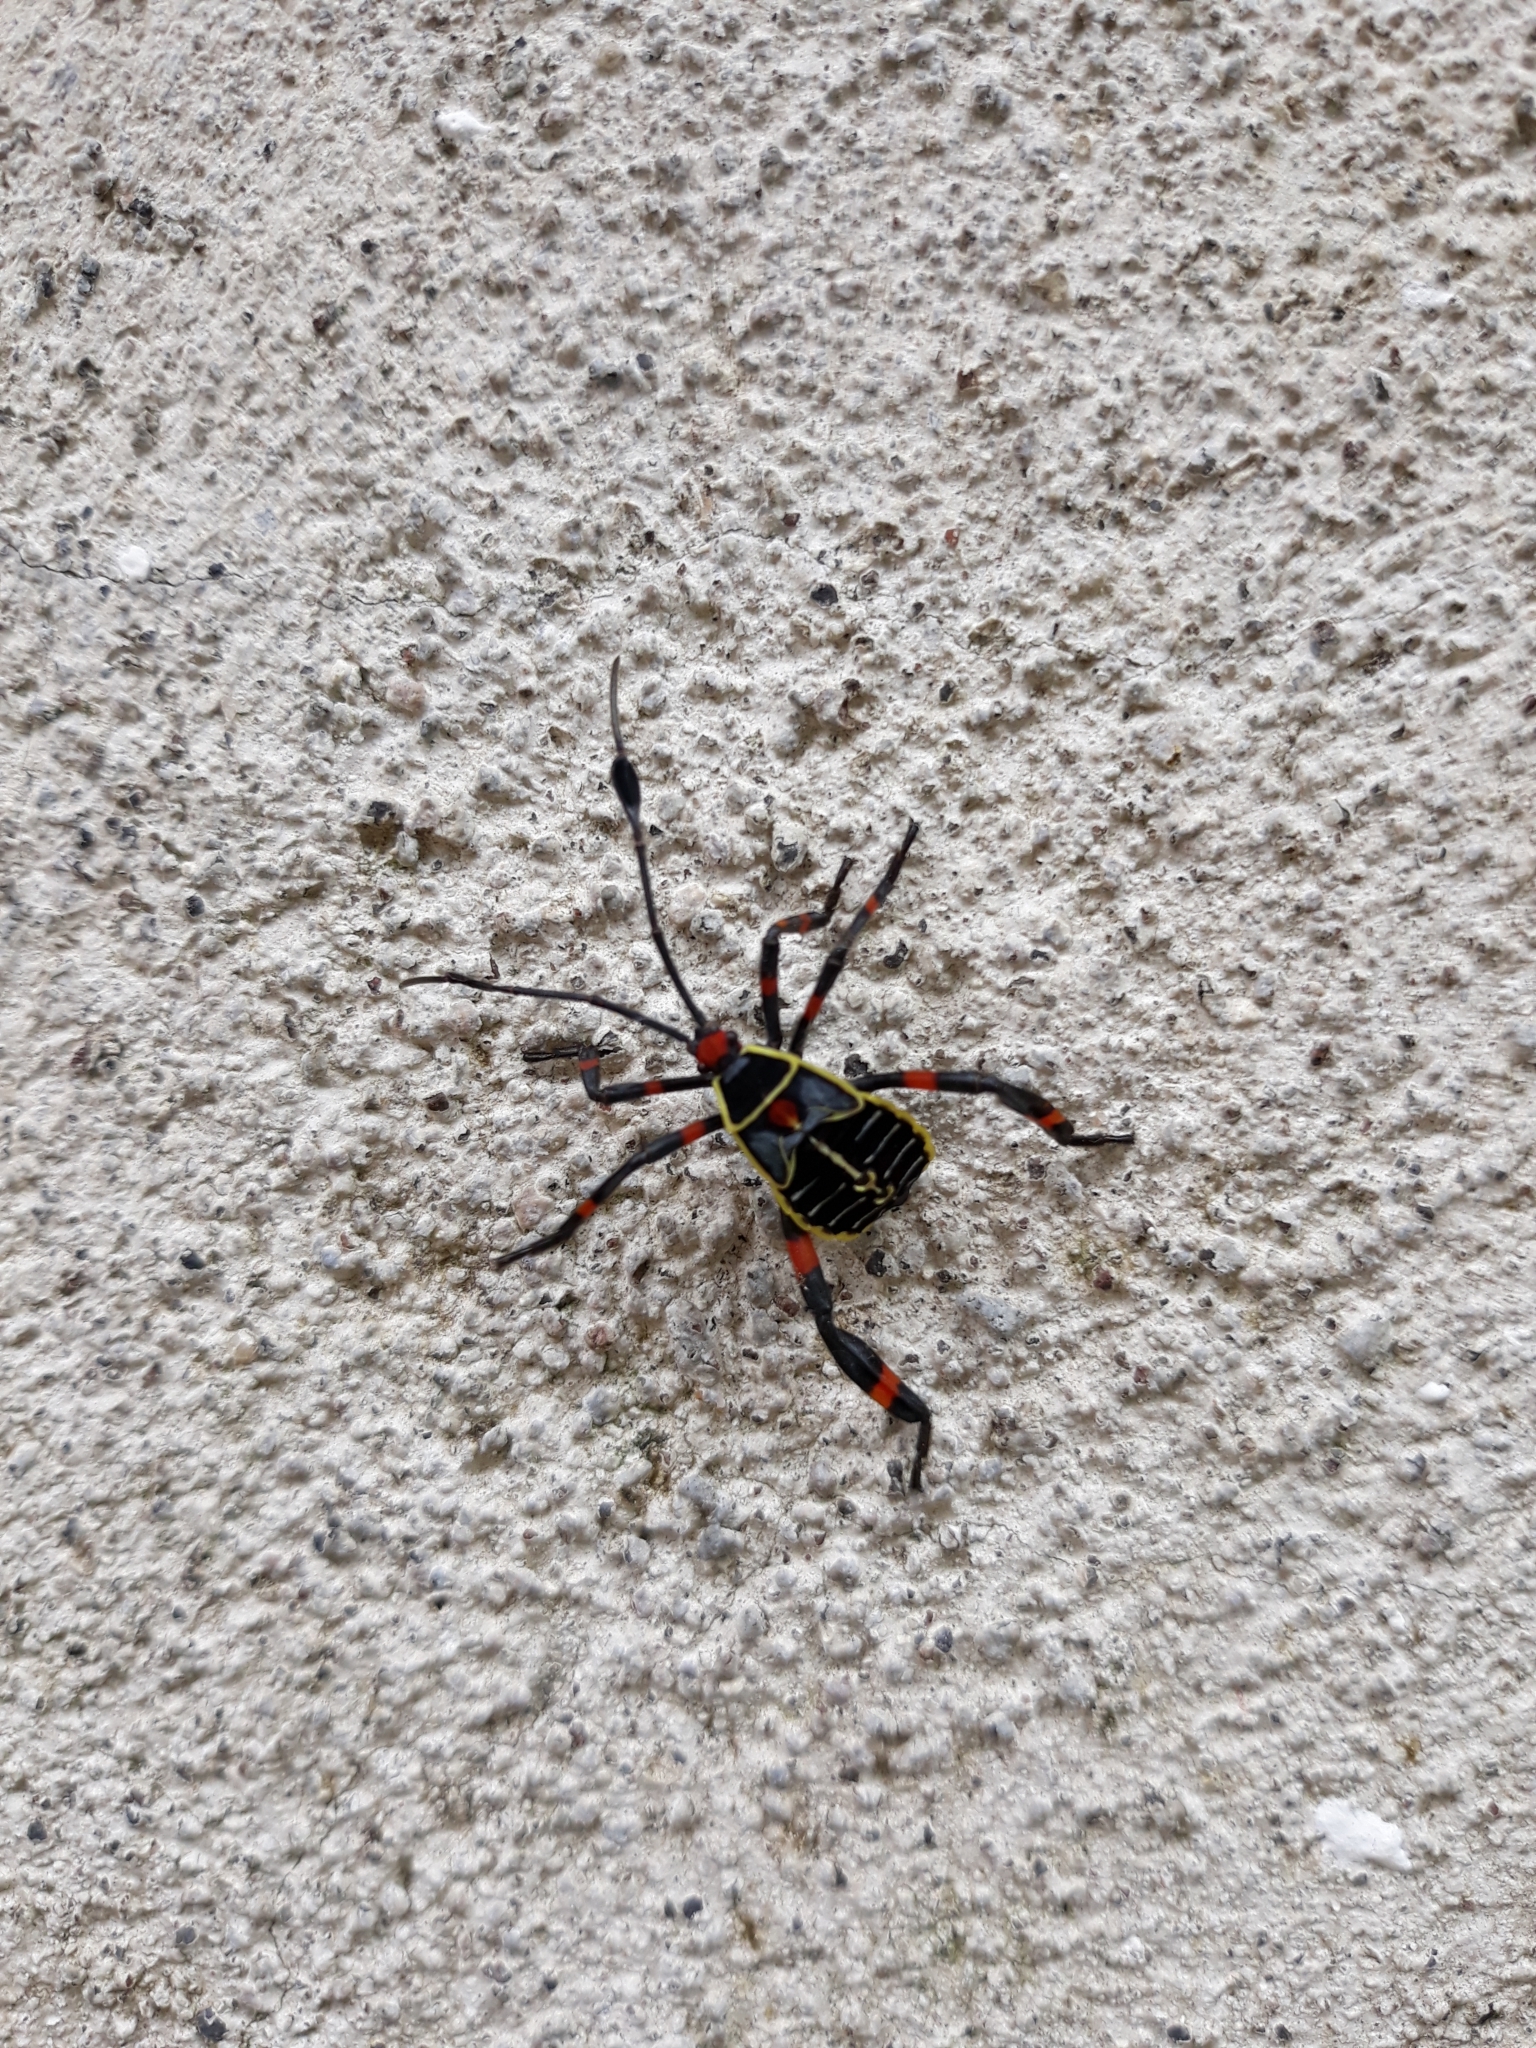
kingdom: Animalia
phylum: Arthropoda
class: Insecta
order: Hemiptera
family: Coreidae
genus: Thasus
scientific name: Thasus acutangulus
